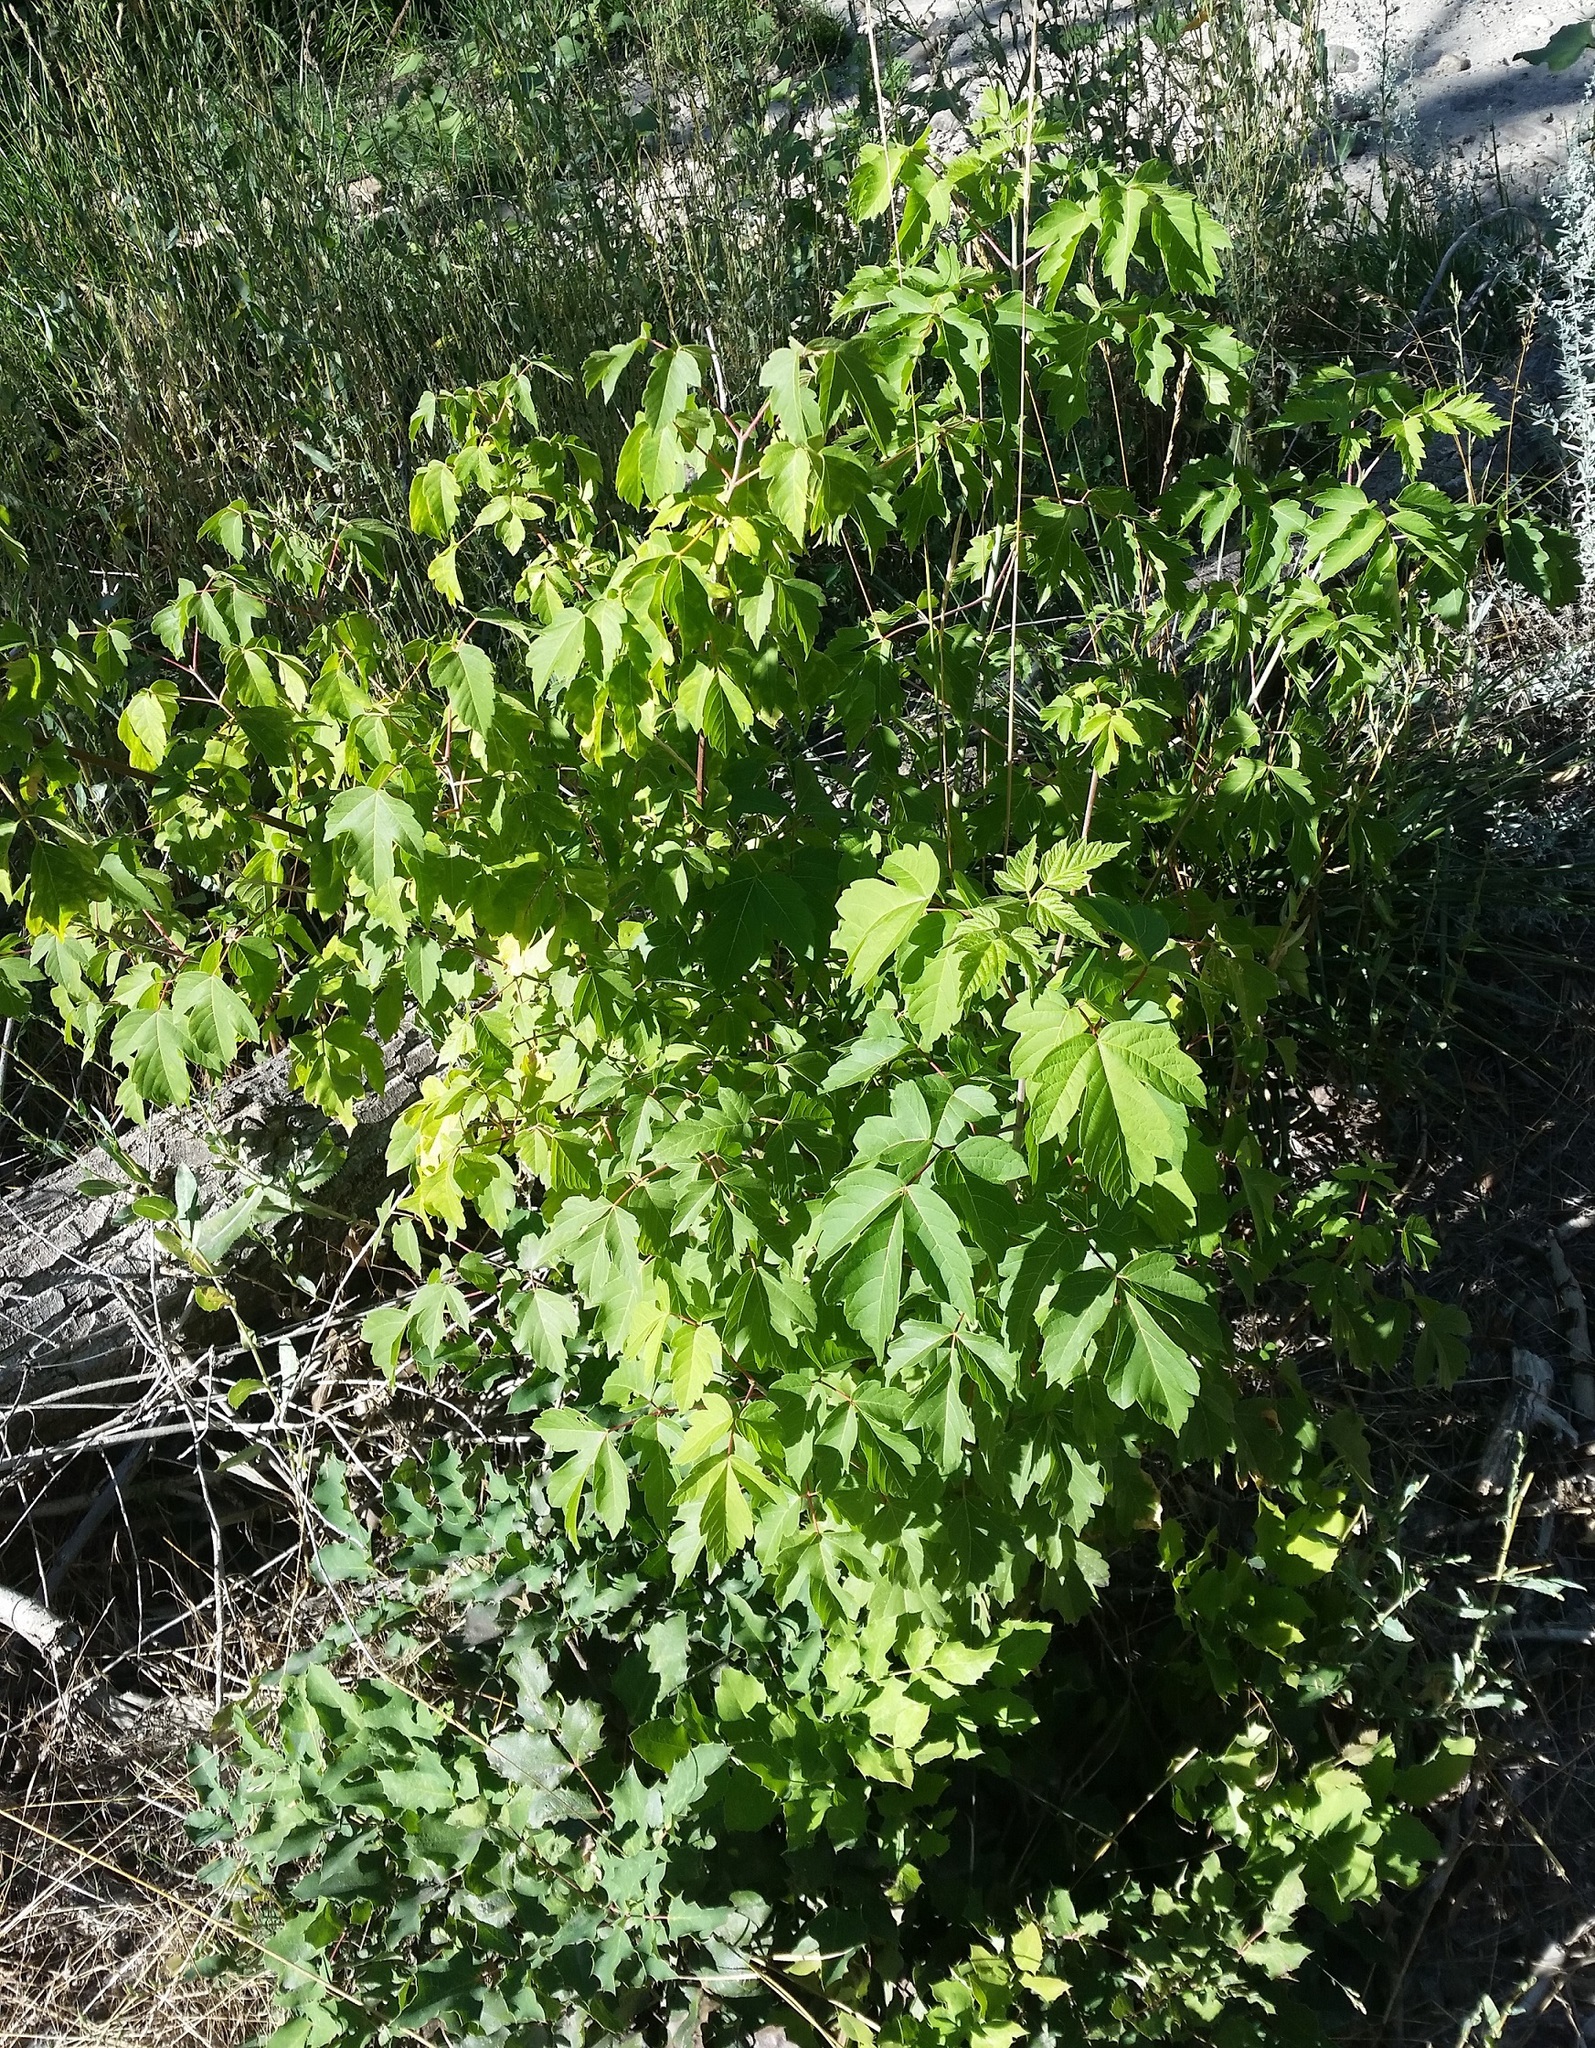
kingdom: Plantae
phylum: Tracheophyta
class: Magnoliopsida
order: Sapindales
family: Sapindaceae
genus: Acer
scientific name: Acer negundo
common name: Ashleaf maple
